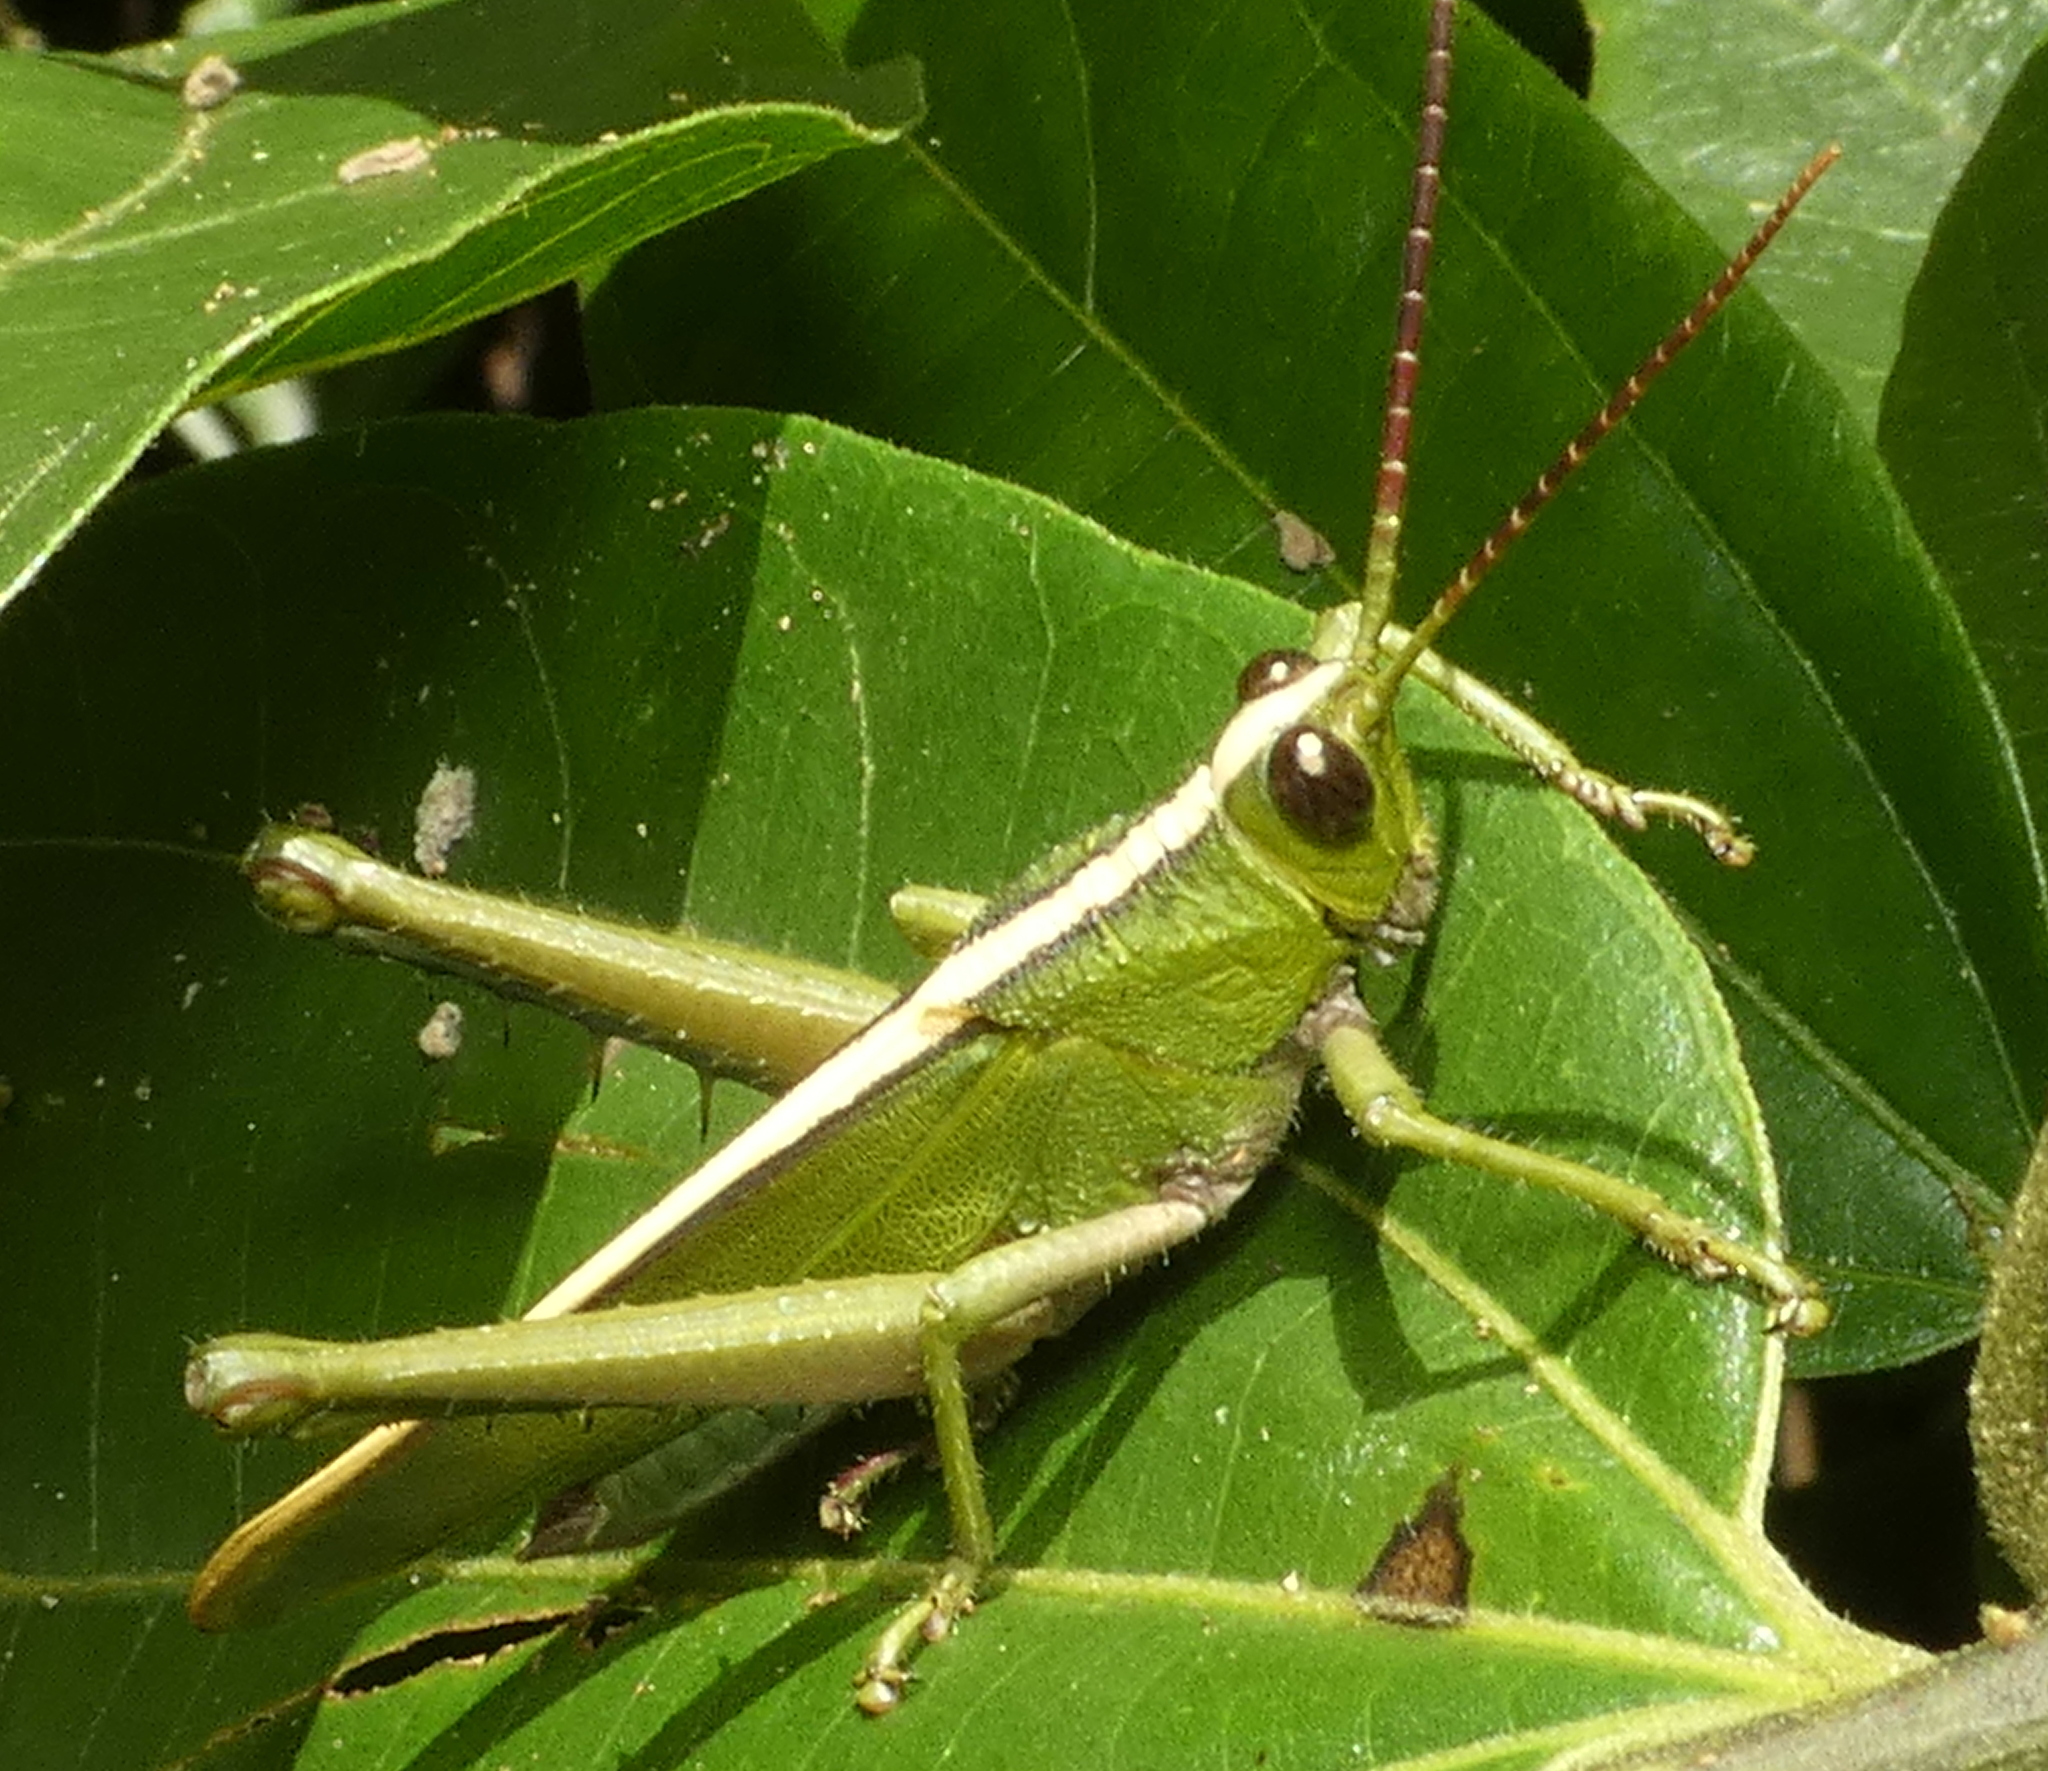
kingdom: Animalia
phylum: Arthropoda
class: Insecta
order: Orthoptera
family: Romaleidae
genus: Agriacris
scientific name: Agriacris auripennis
